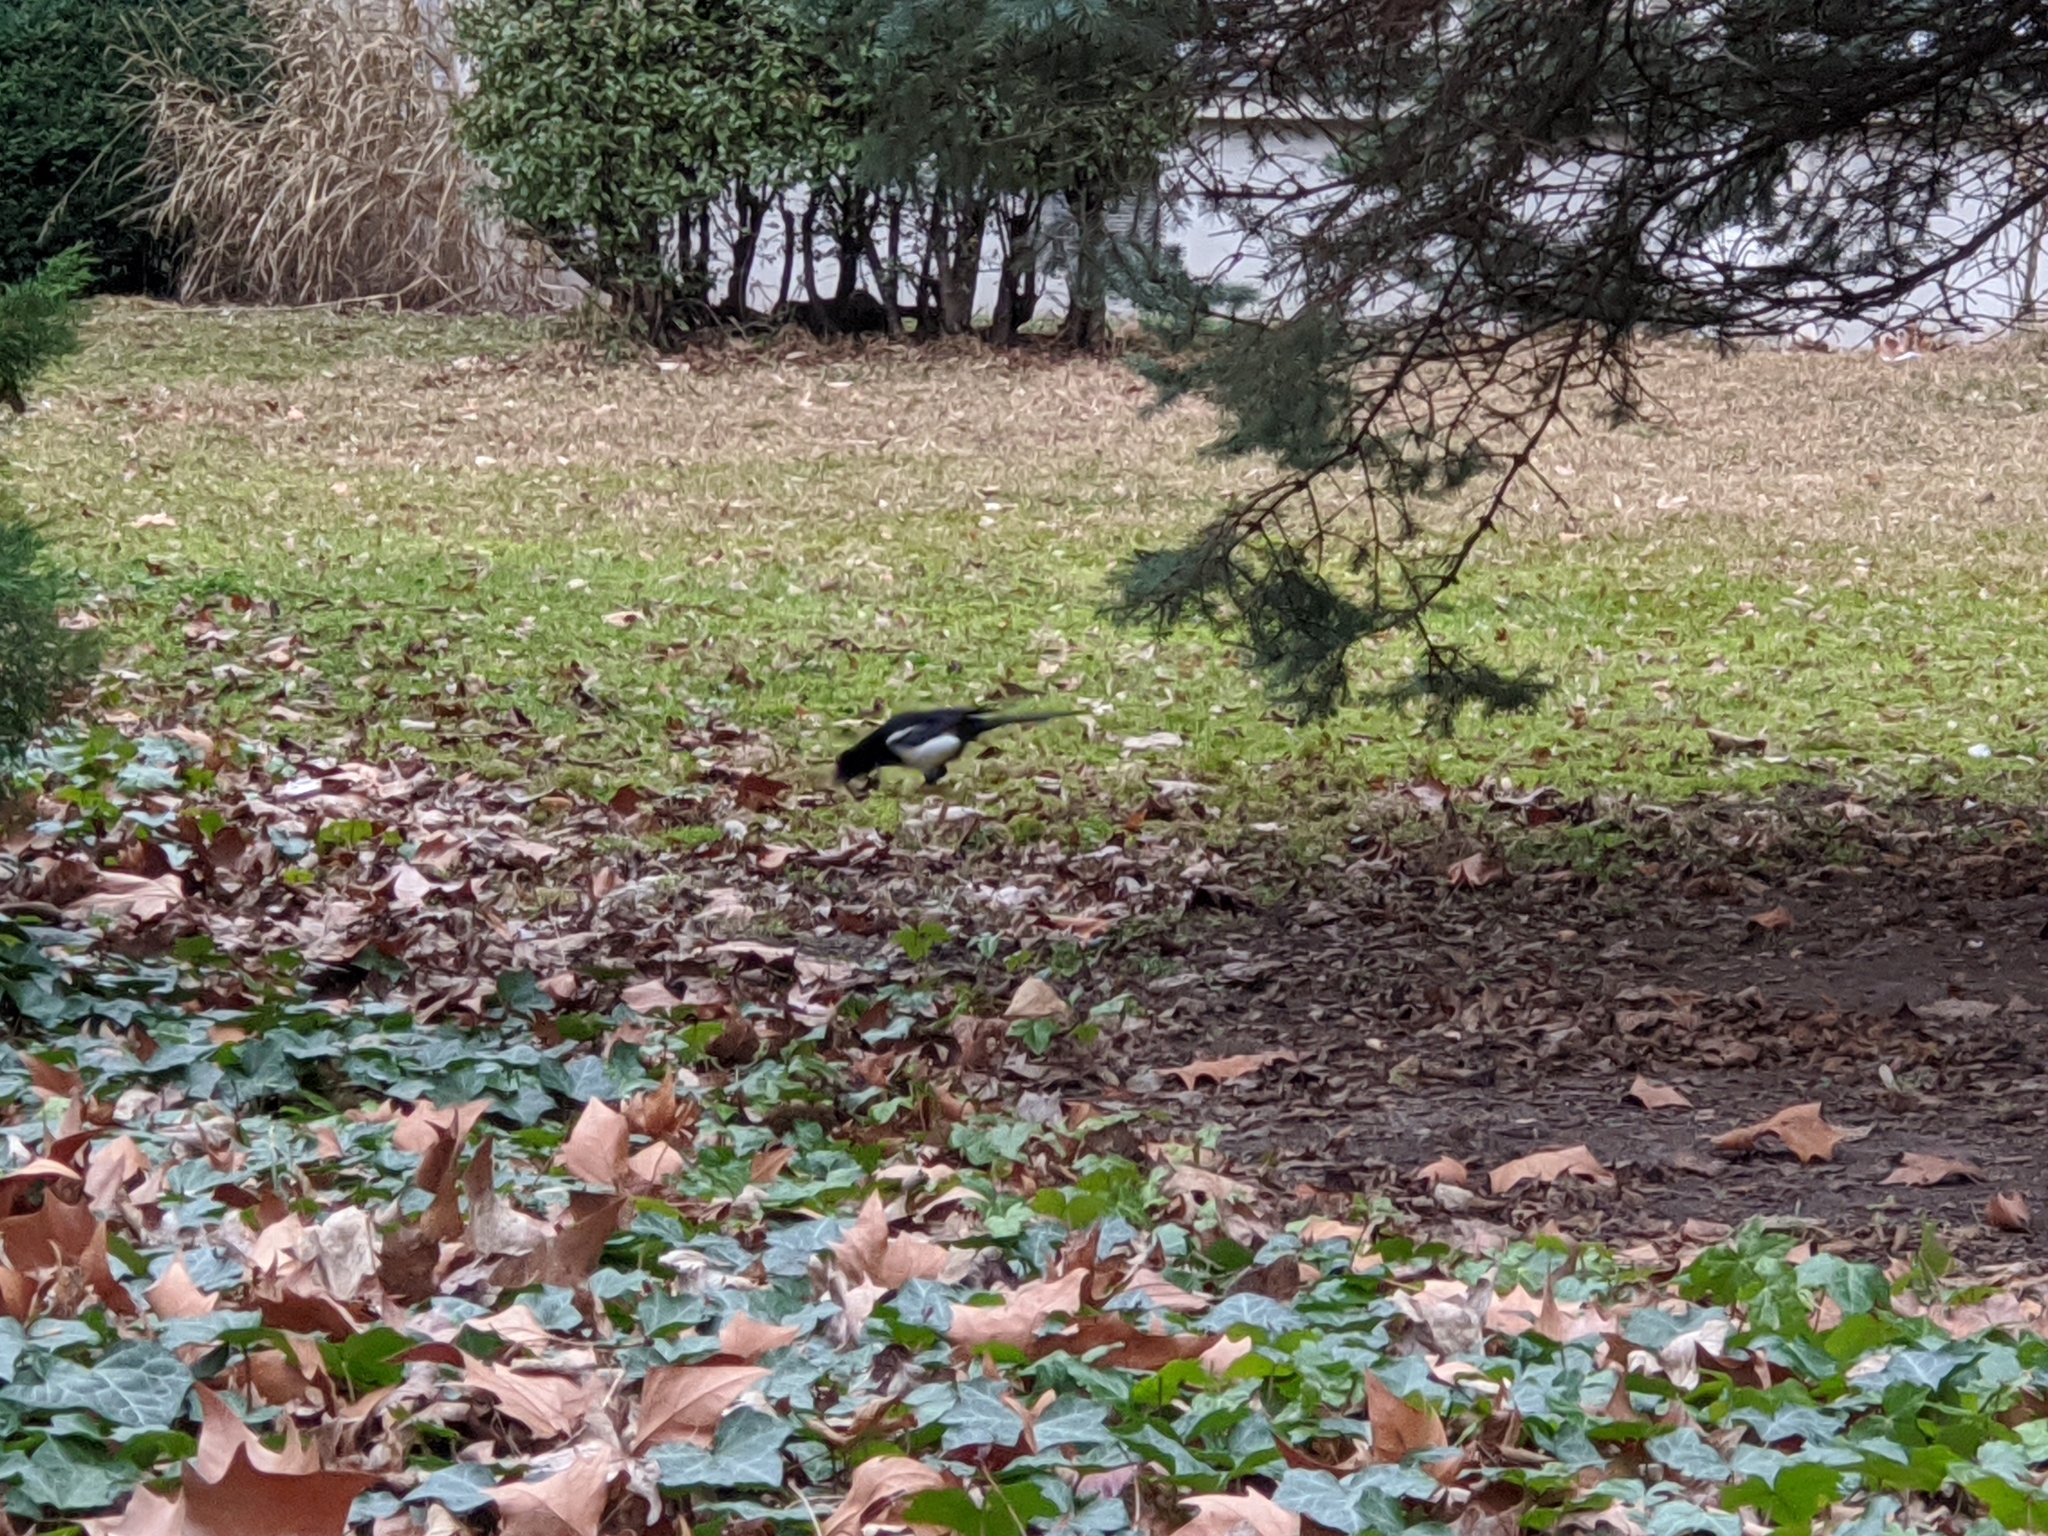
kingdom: Animalia
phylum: Chordata
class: Aves
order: Passeriformes
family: Corvidae
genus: Pica
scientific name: Pica pica
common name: Eurasian magpie
